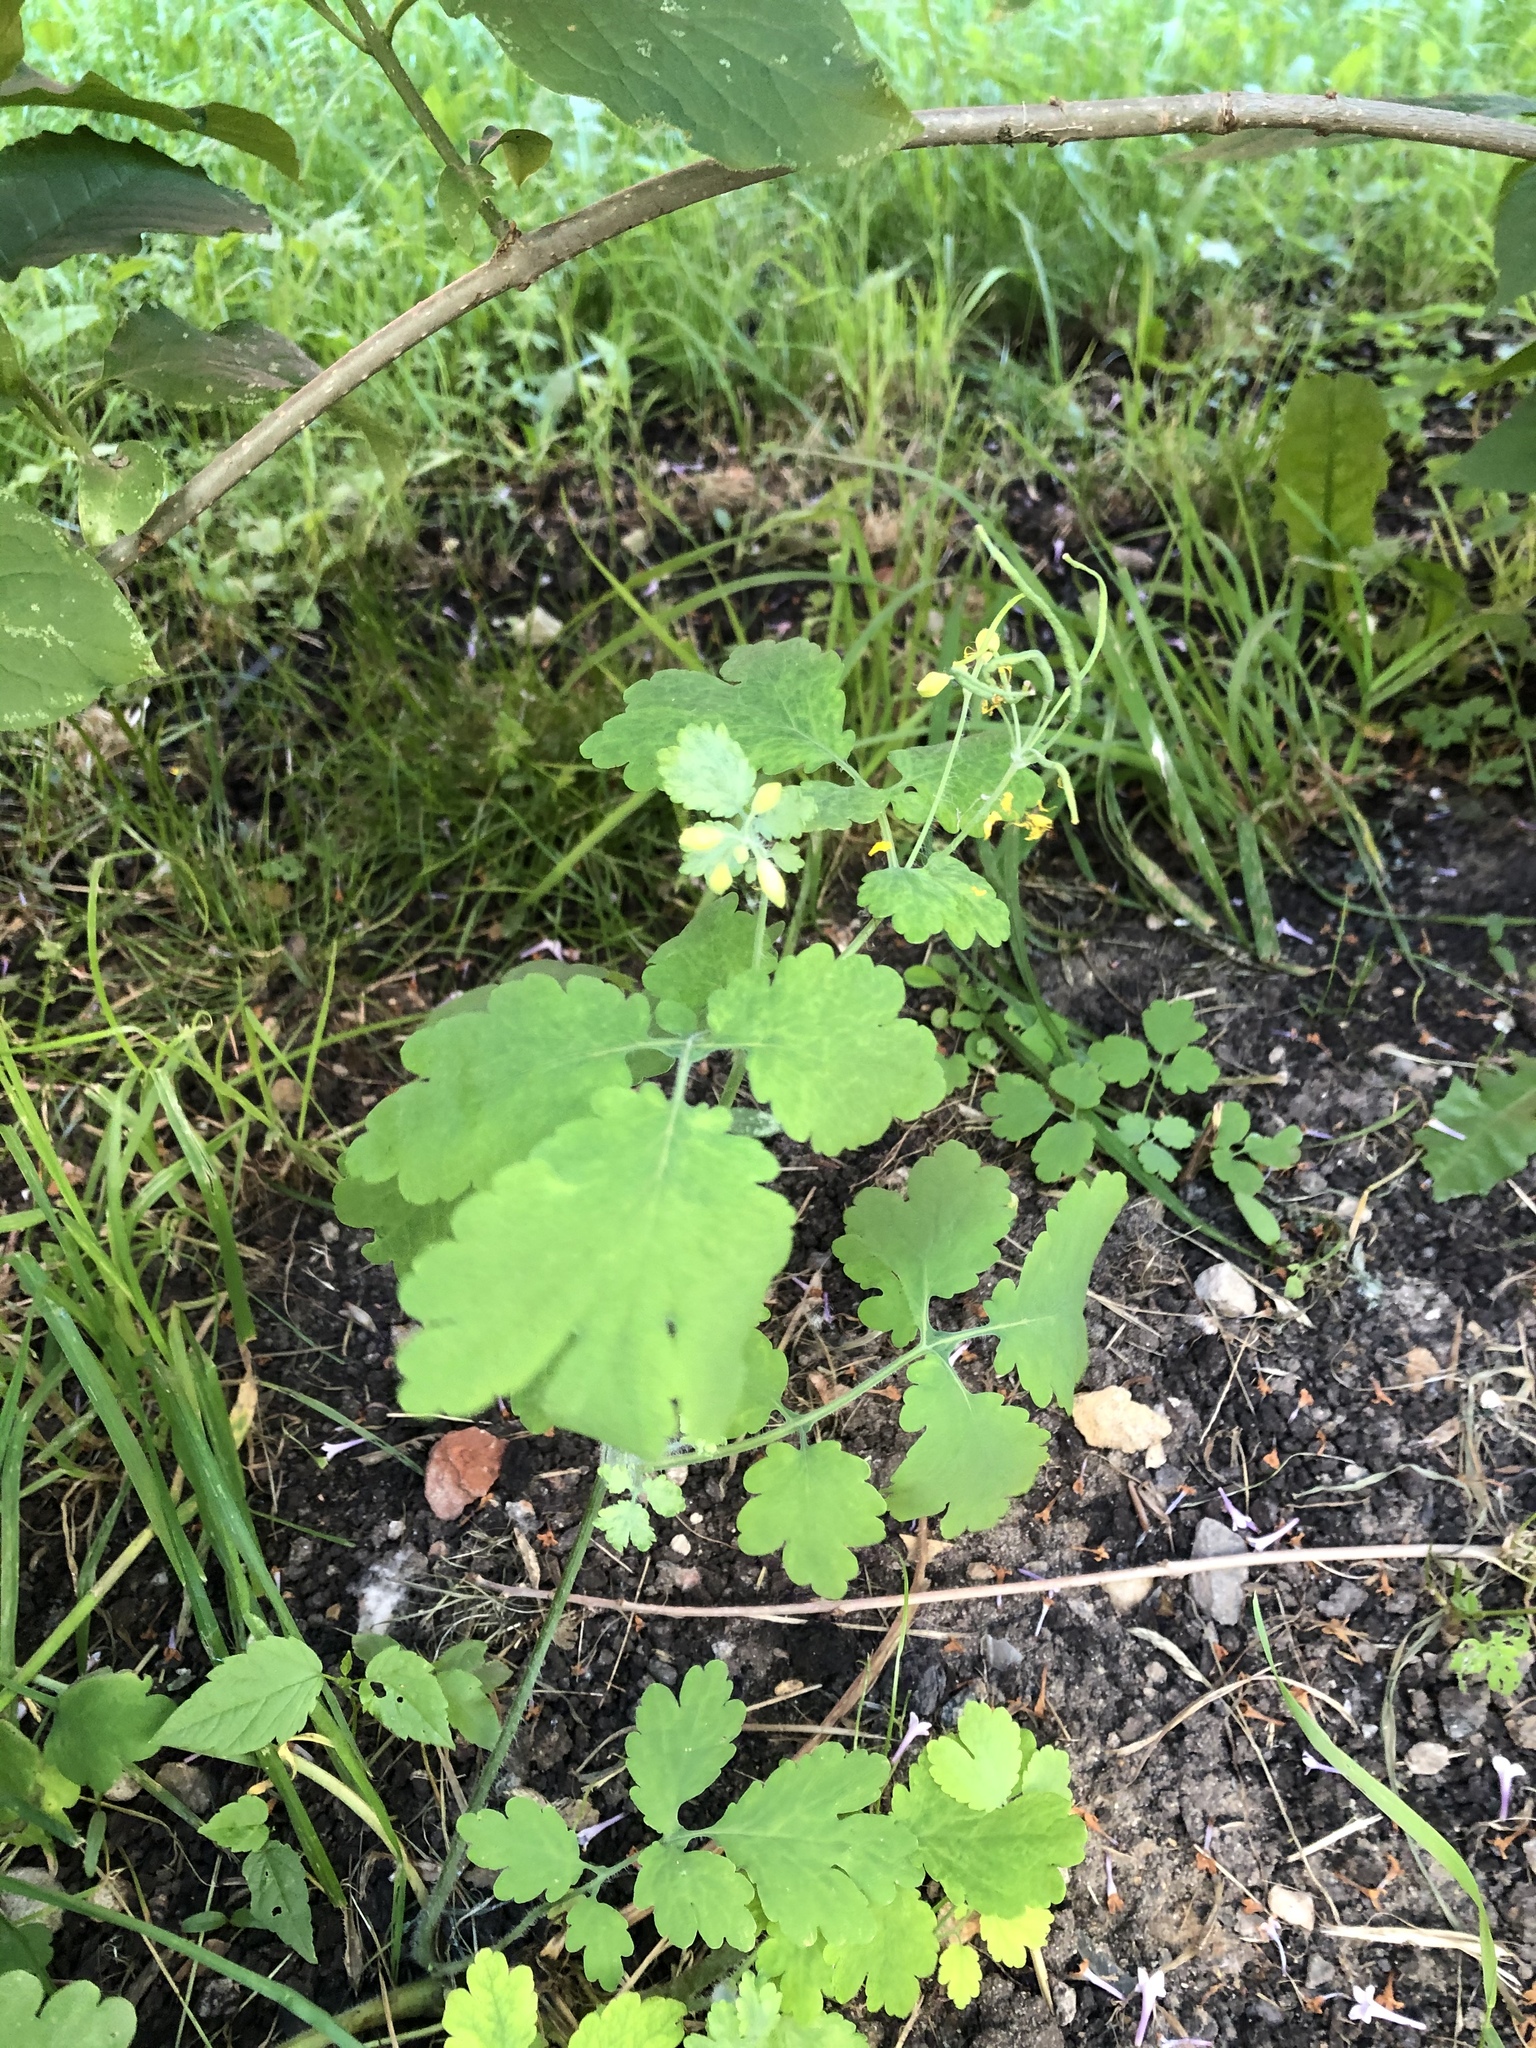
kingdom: Plantae
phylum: Tracheophyta
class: Magnoliopsida
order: Ranunculales
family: Papaveraceae
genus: Chelidonium
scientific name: Chelidonium majus
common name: Greater celandine
